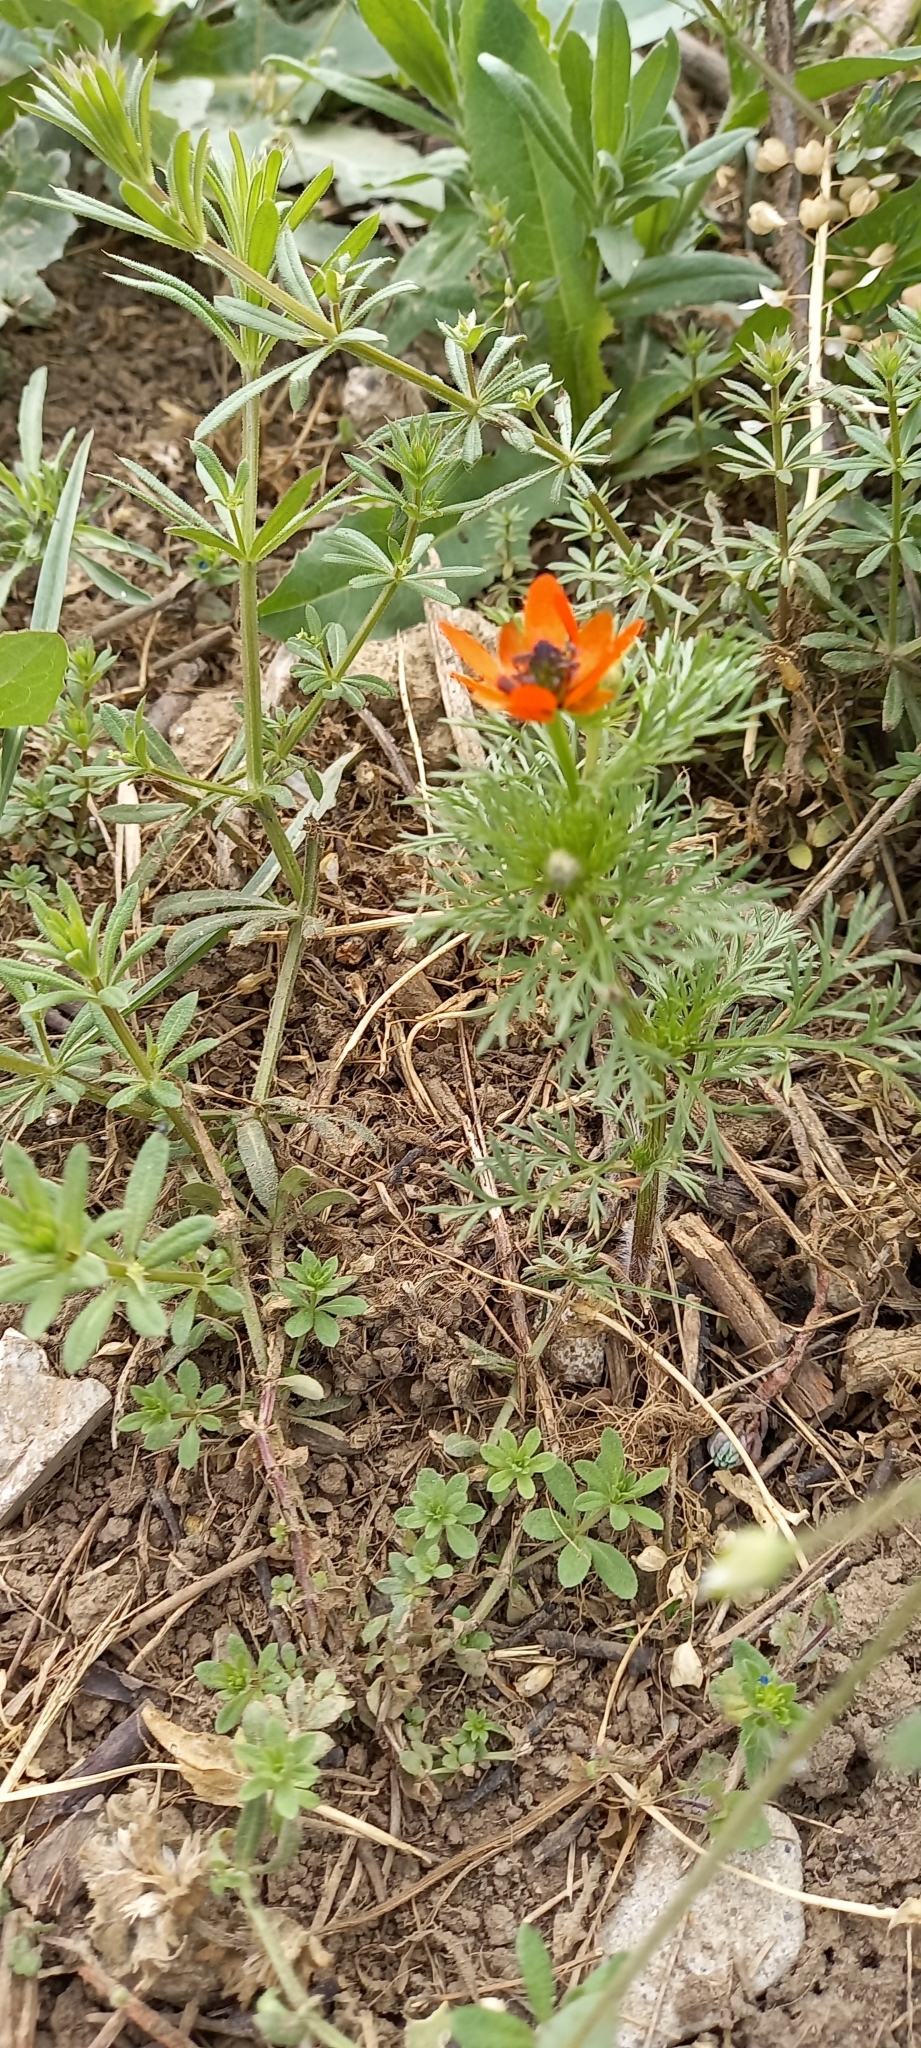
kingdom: Plantae
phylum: Tracheophyta
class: Magnoliopsida
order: Ranunculales
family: Ranunculaceae
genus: Adonis
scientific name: Adonis aestivalis
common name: Summer pheasant's-eye
